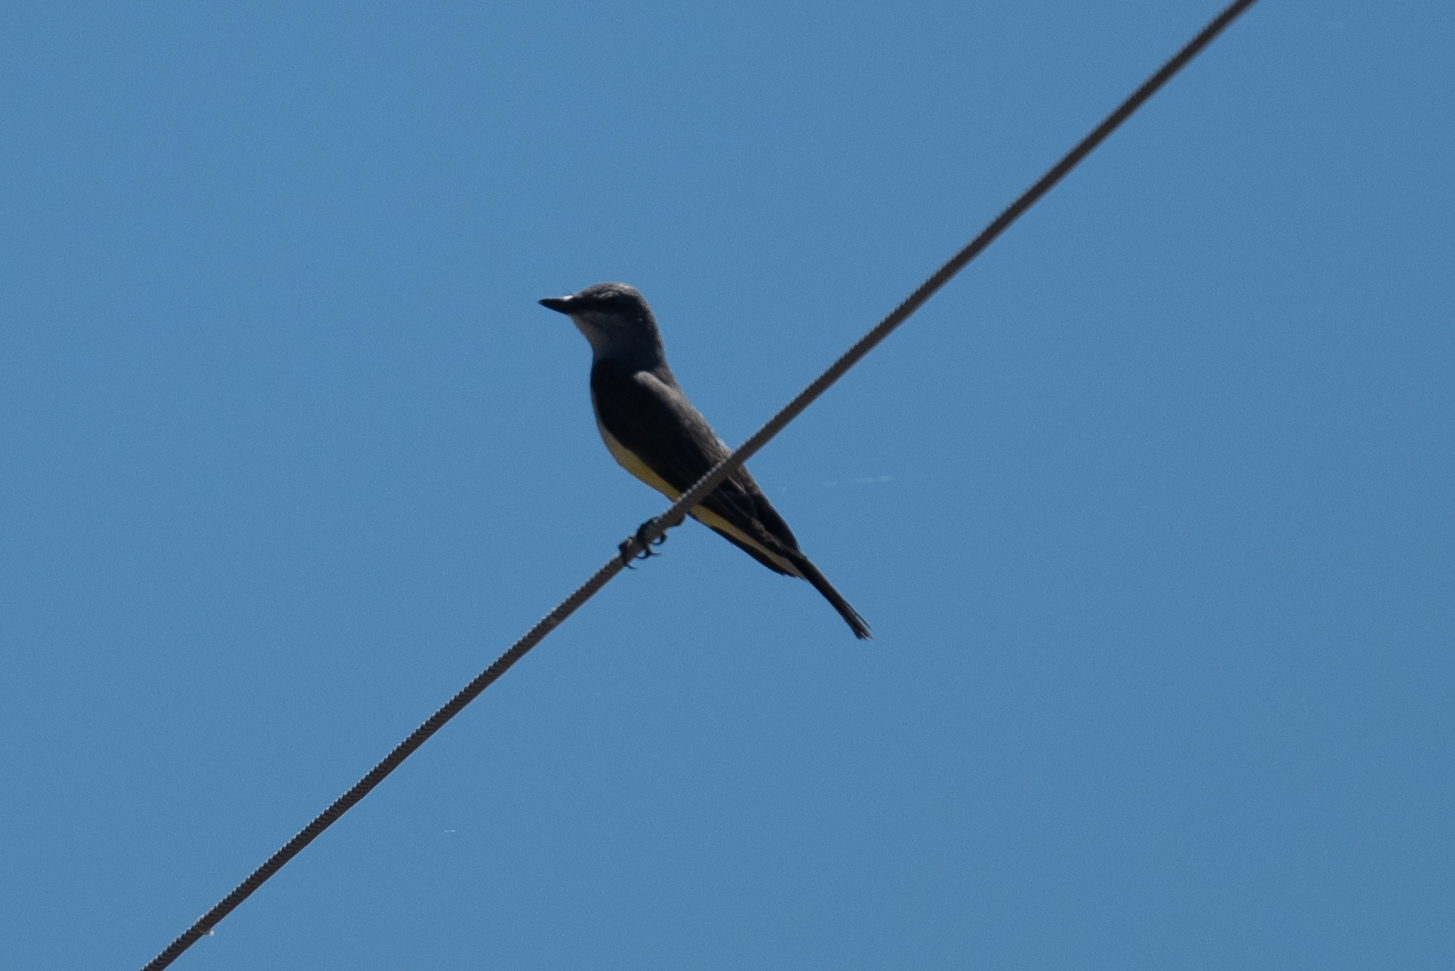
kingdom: Animalia
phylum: Chordata
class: Aves
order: Passeriformes
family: Tyrannidae
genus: Tyrannus
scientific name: Tyrannus verticalis
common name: Western kingbird
